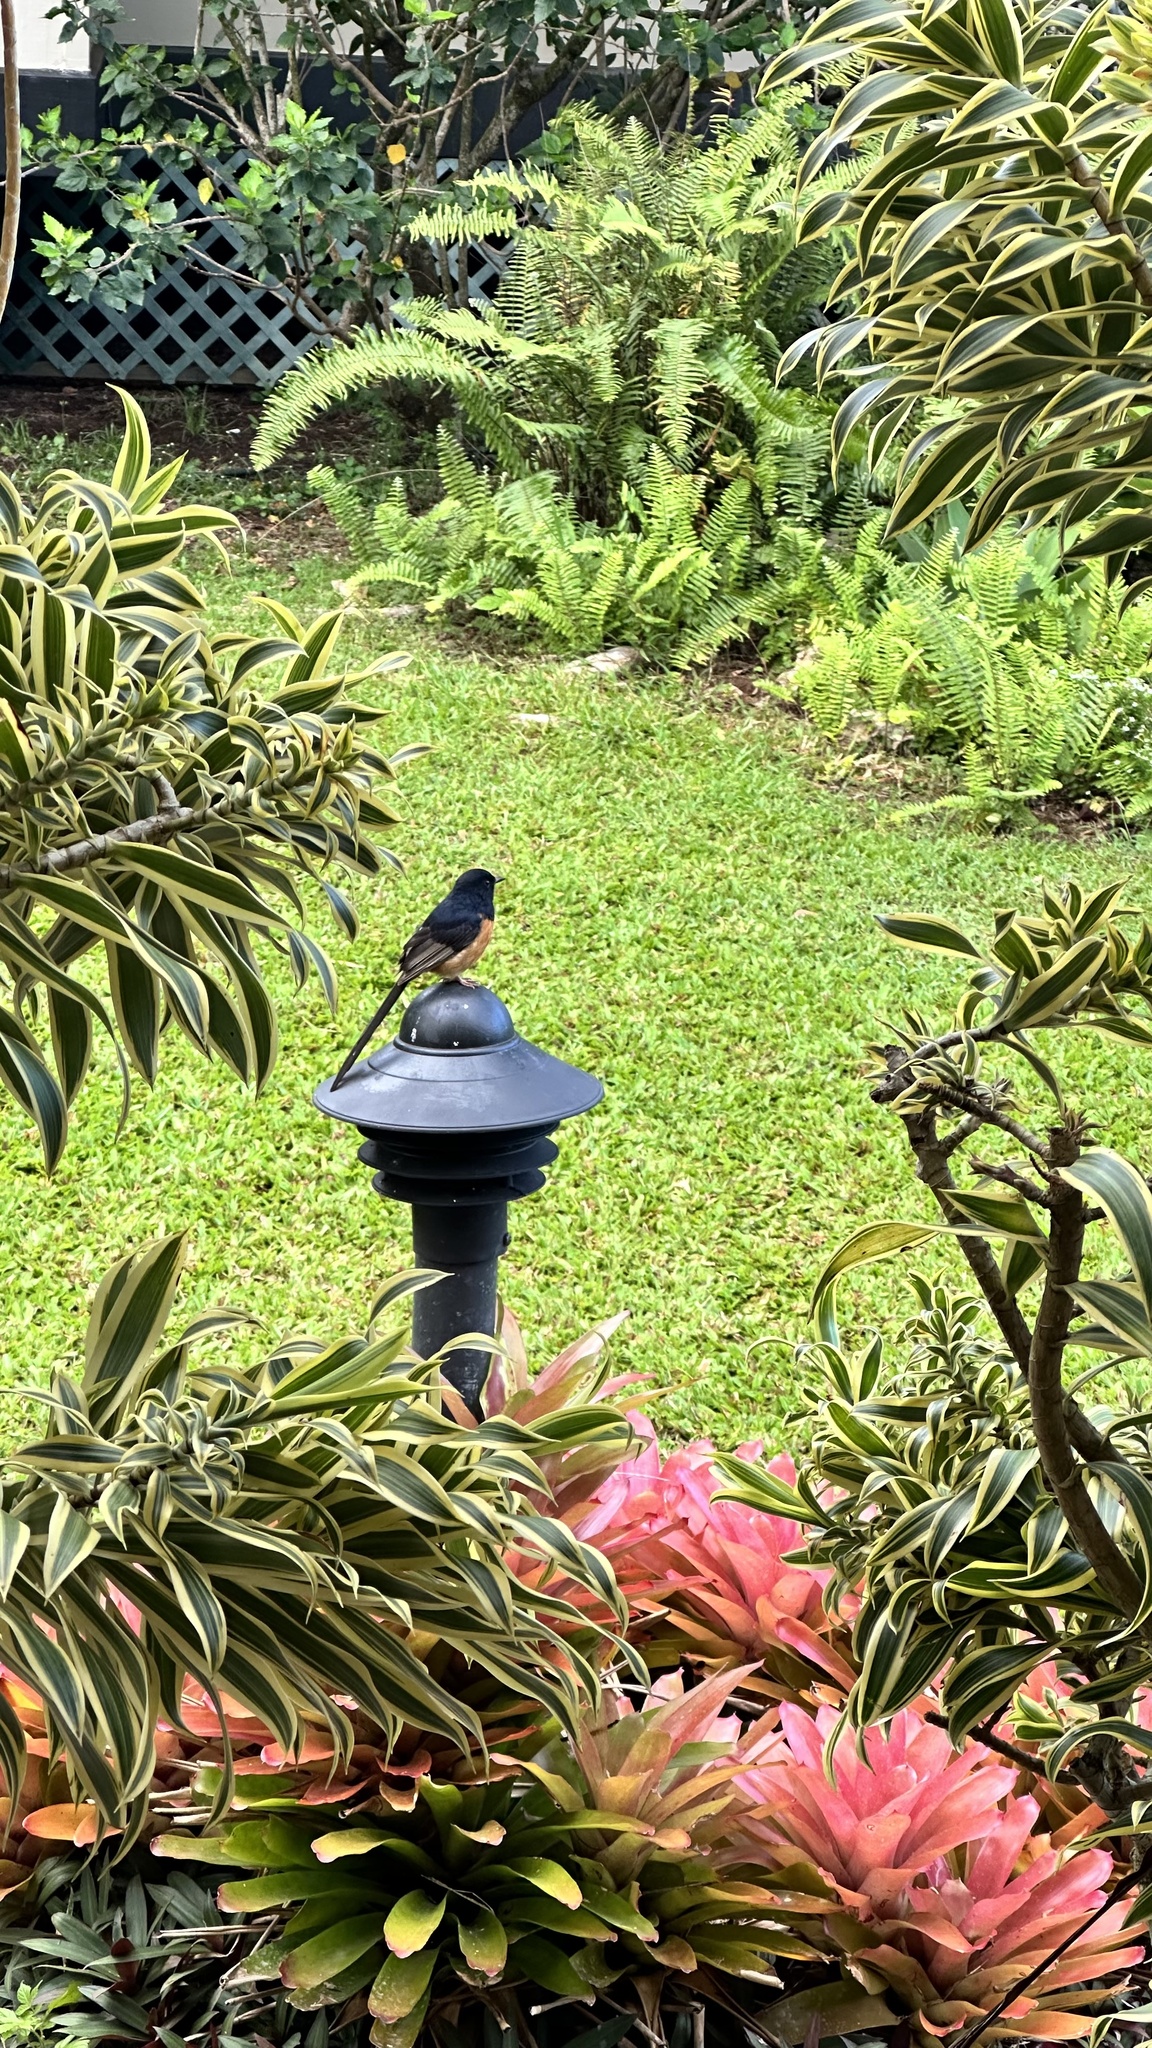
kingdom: Animalia
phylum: Chordata
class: Aves
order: Passeriformes
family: Muscicapidae
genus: Copsychus
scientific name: Copsychus malabaricus
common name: White-rumped shama
